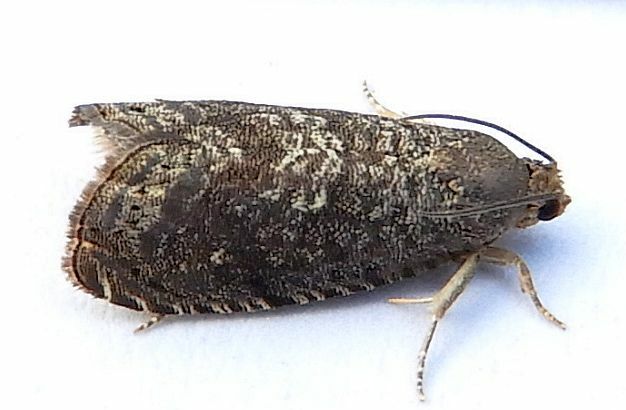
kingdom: Animalia
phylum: Arthropoda
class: Insecta
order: Lepidoptera
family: Noctuidae
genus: Aspila
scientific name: Aspila
